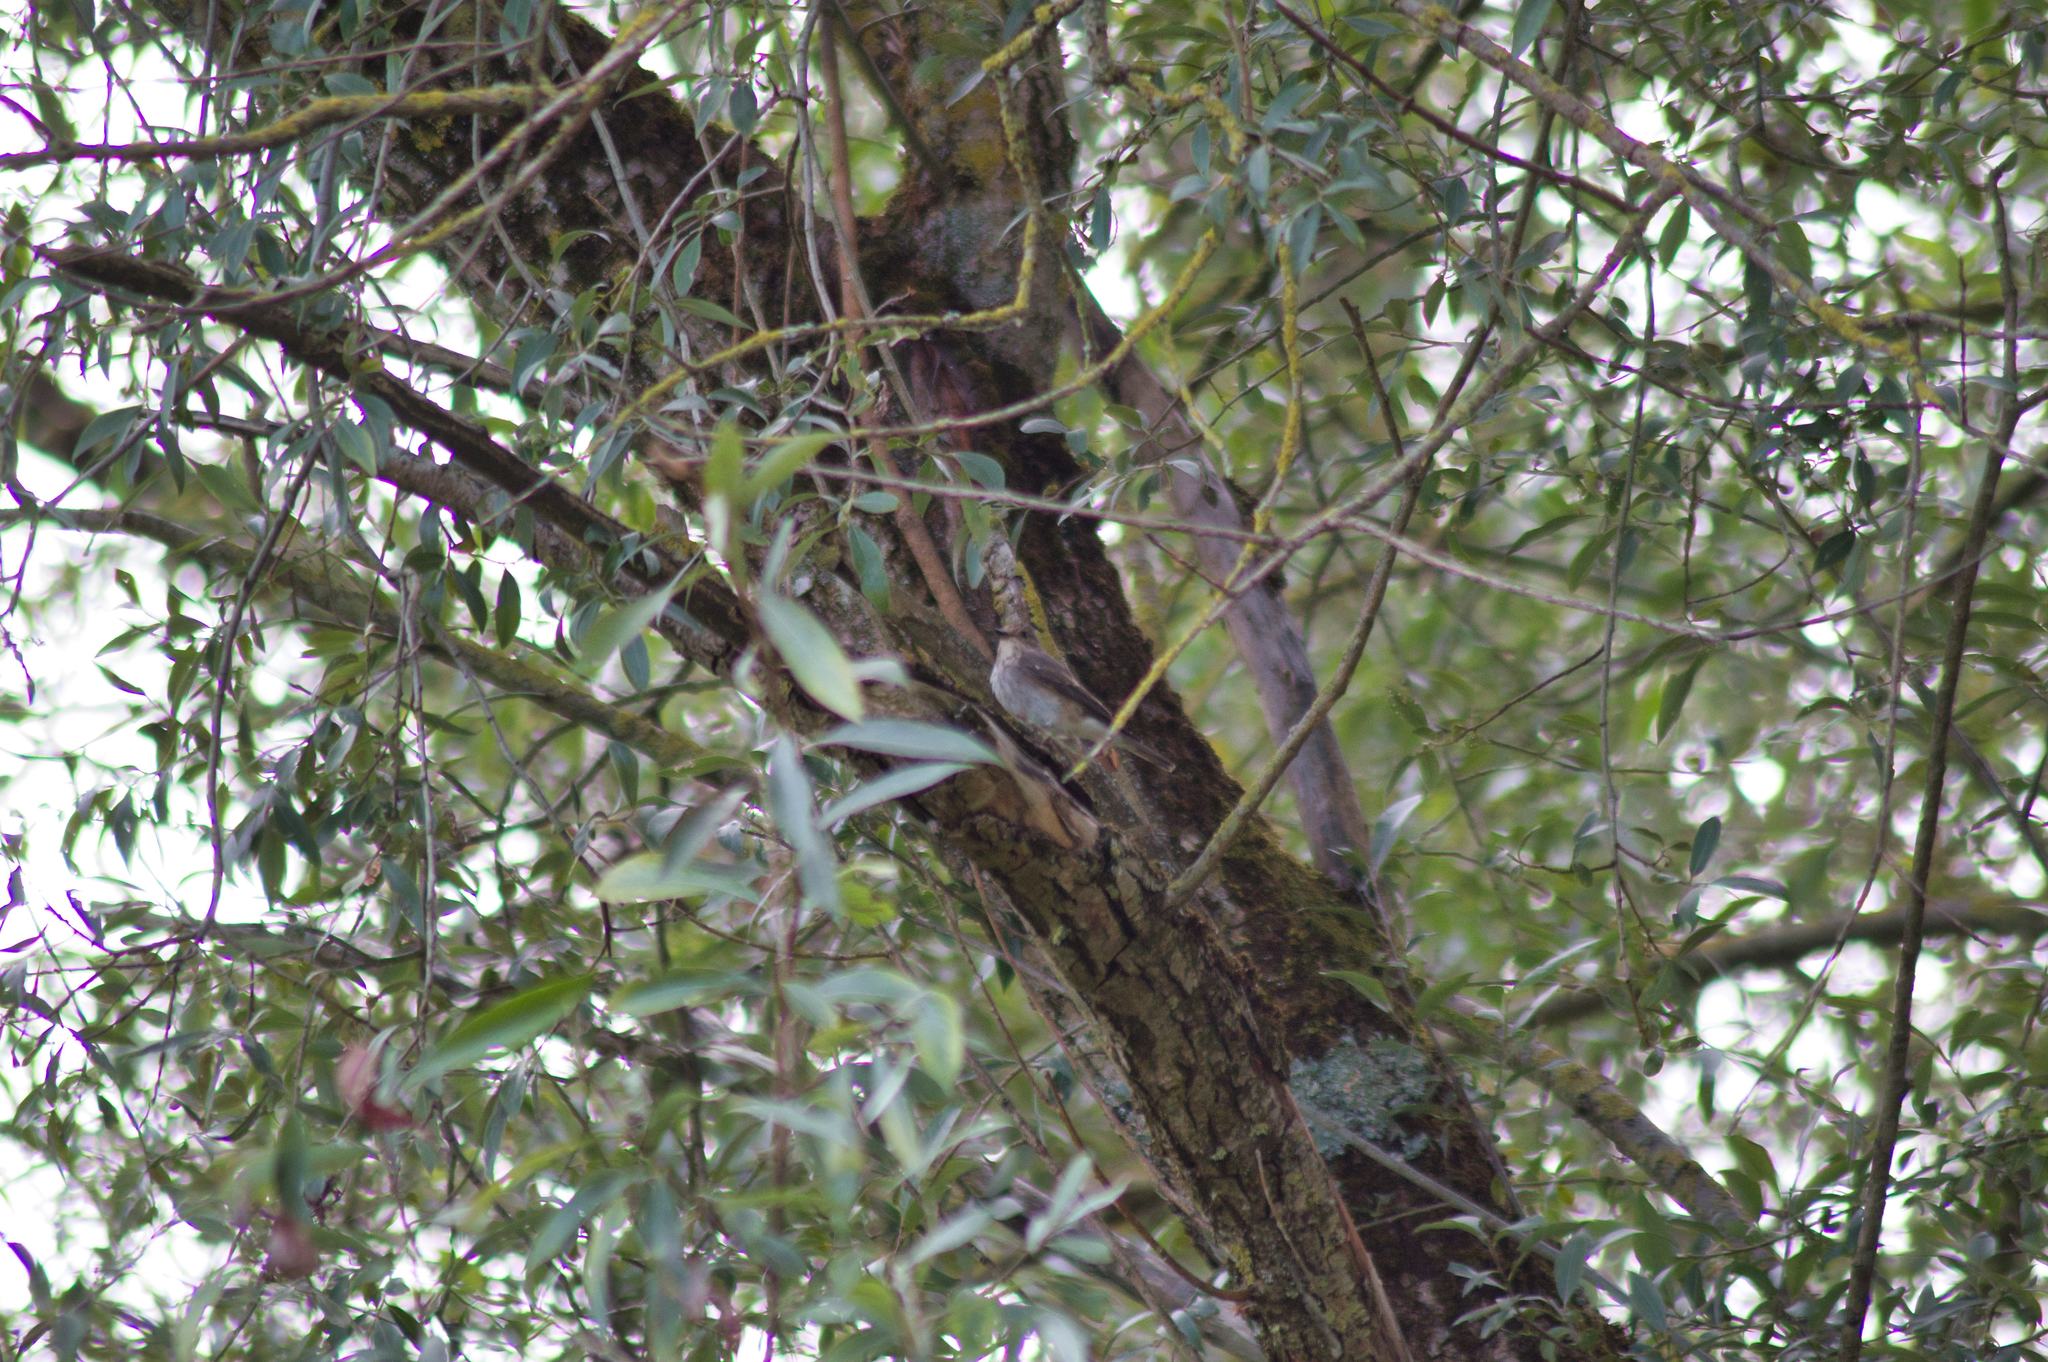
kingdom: Animalia
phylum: Chordata
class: Aves
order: Passeriformes
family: Muscicapidae
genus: Muscicapa
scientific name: Muscicapa striata
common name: Spotted flycatcher
